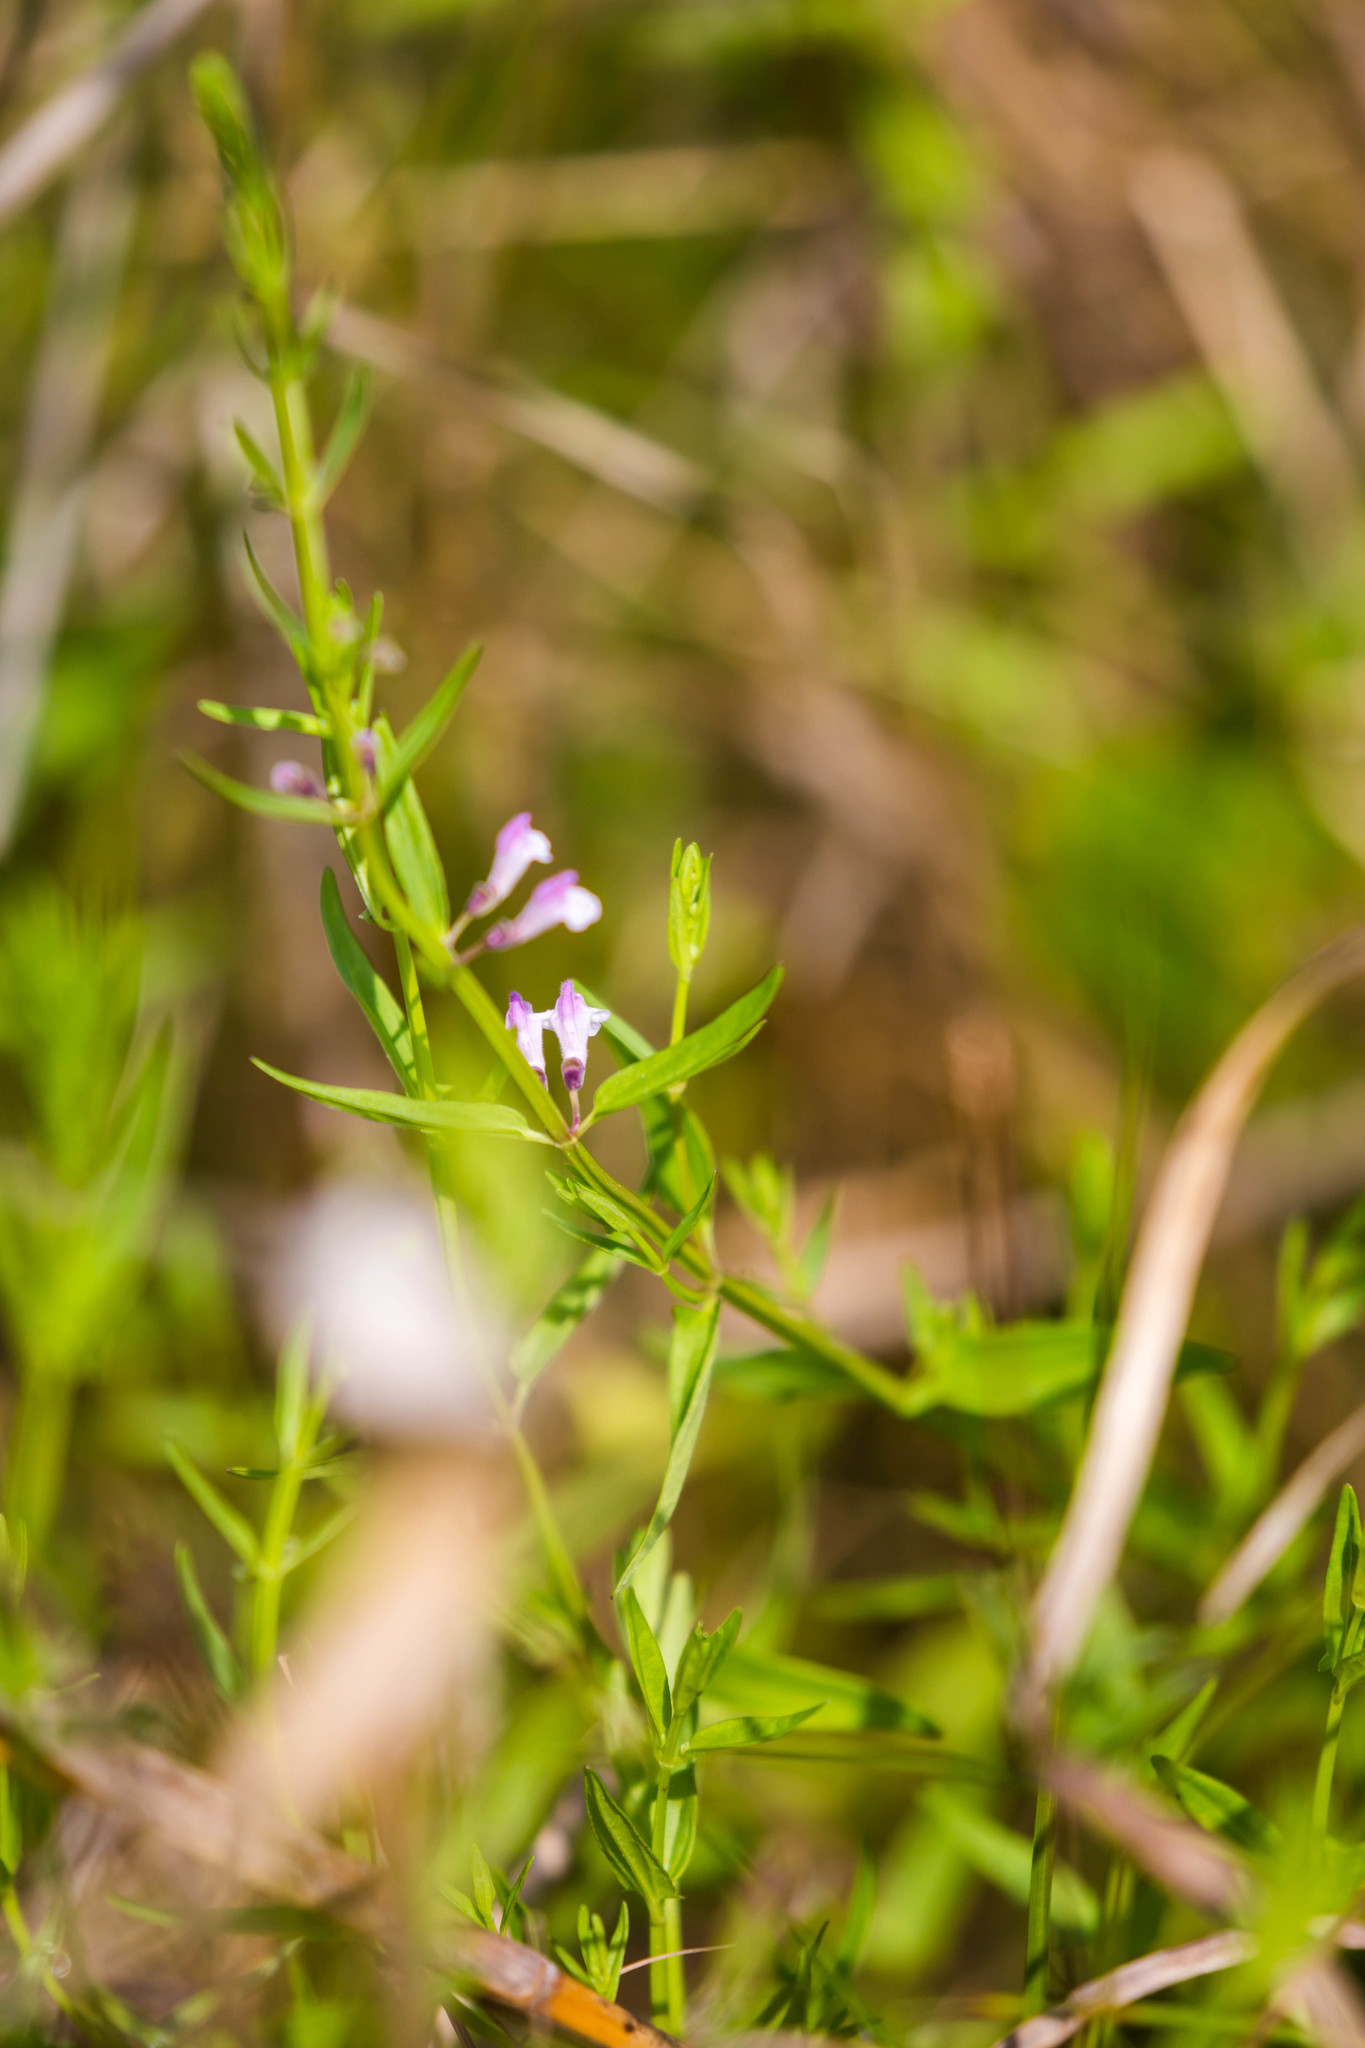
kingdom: Plantae
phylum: Tracheophyta
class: Magnoliopsida
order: Lamiales
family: Lamiaceae
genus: Scutellaria
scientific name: Scutellaria racemosa
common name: South american skullcap
